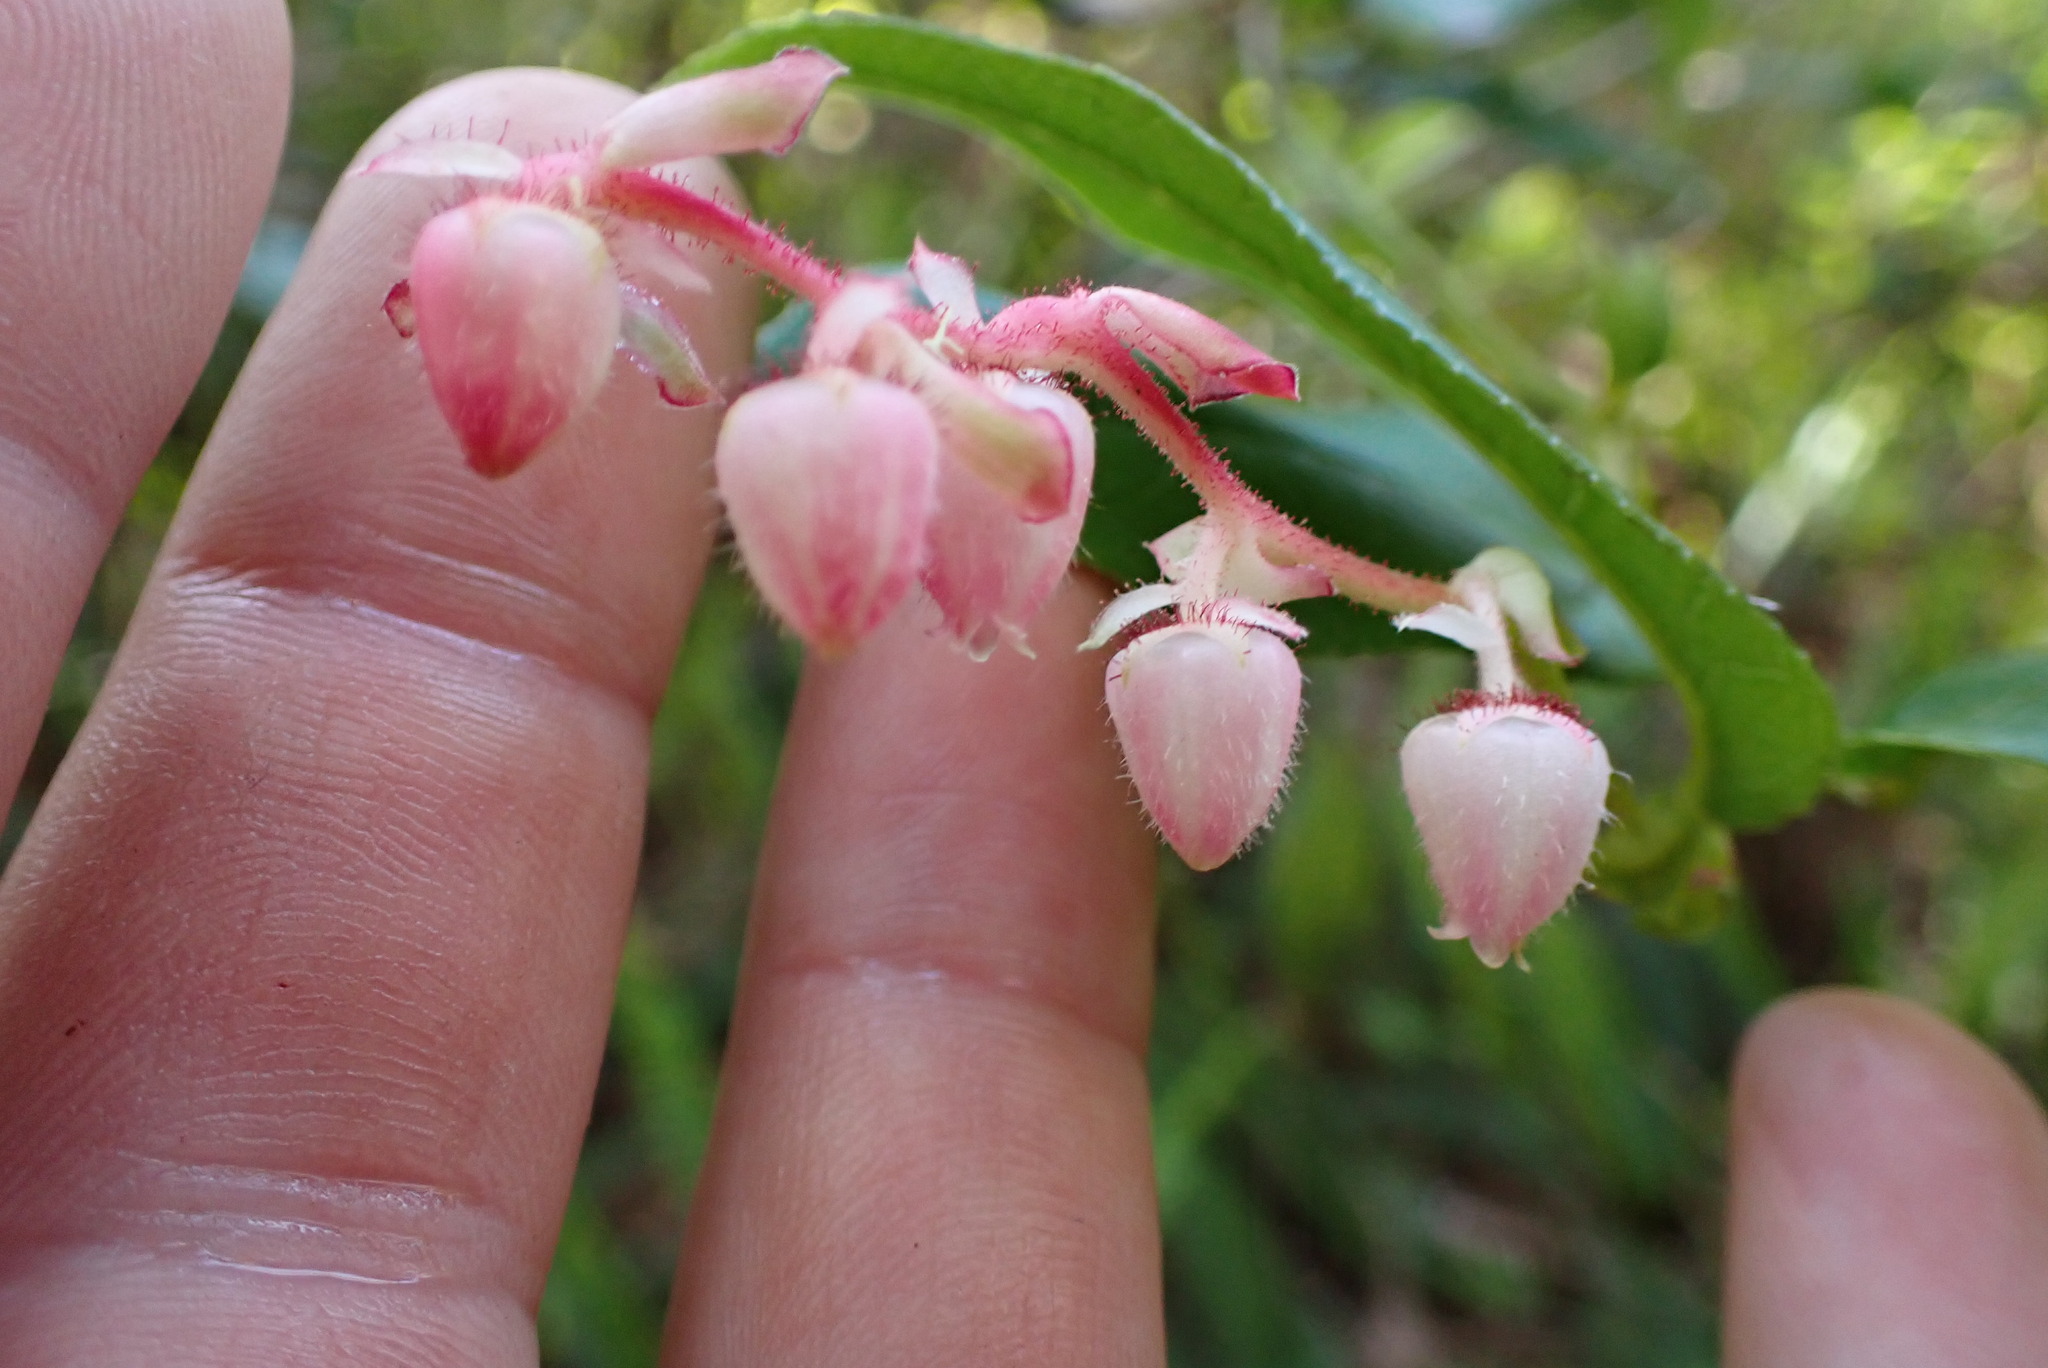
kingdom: Plantae
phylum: Tracheophyta
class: Magnoliopsida
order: Ericales
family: Ericaceae
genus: Gaultheria
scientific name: Gaultheria shallon
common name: Shallon
